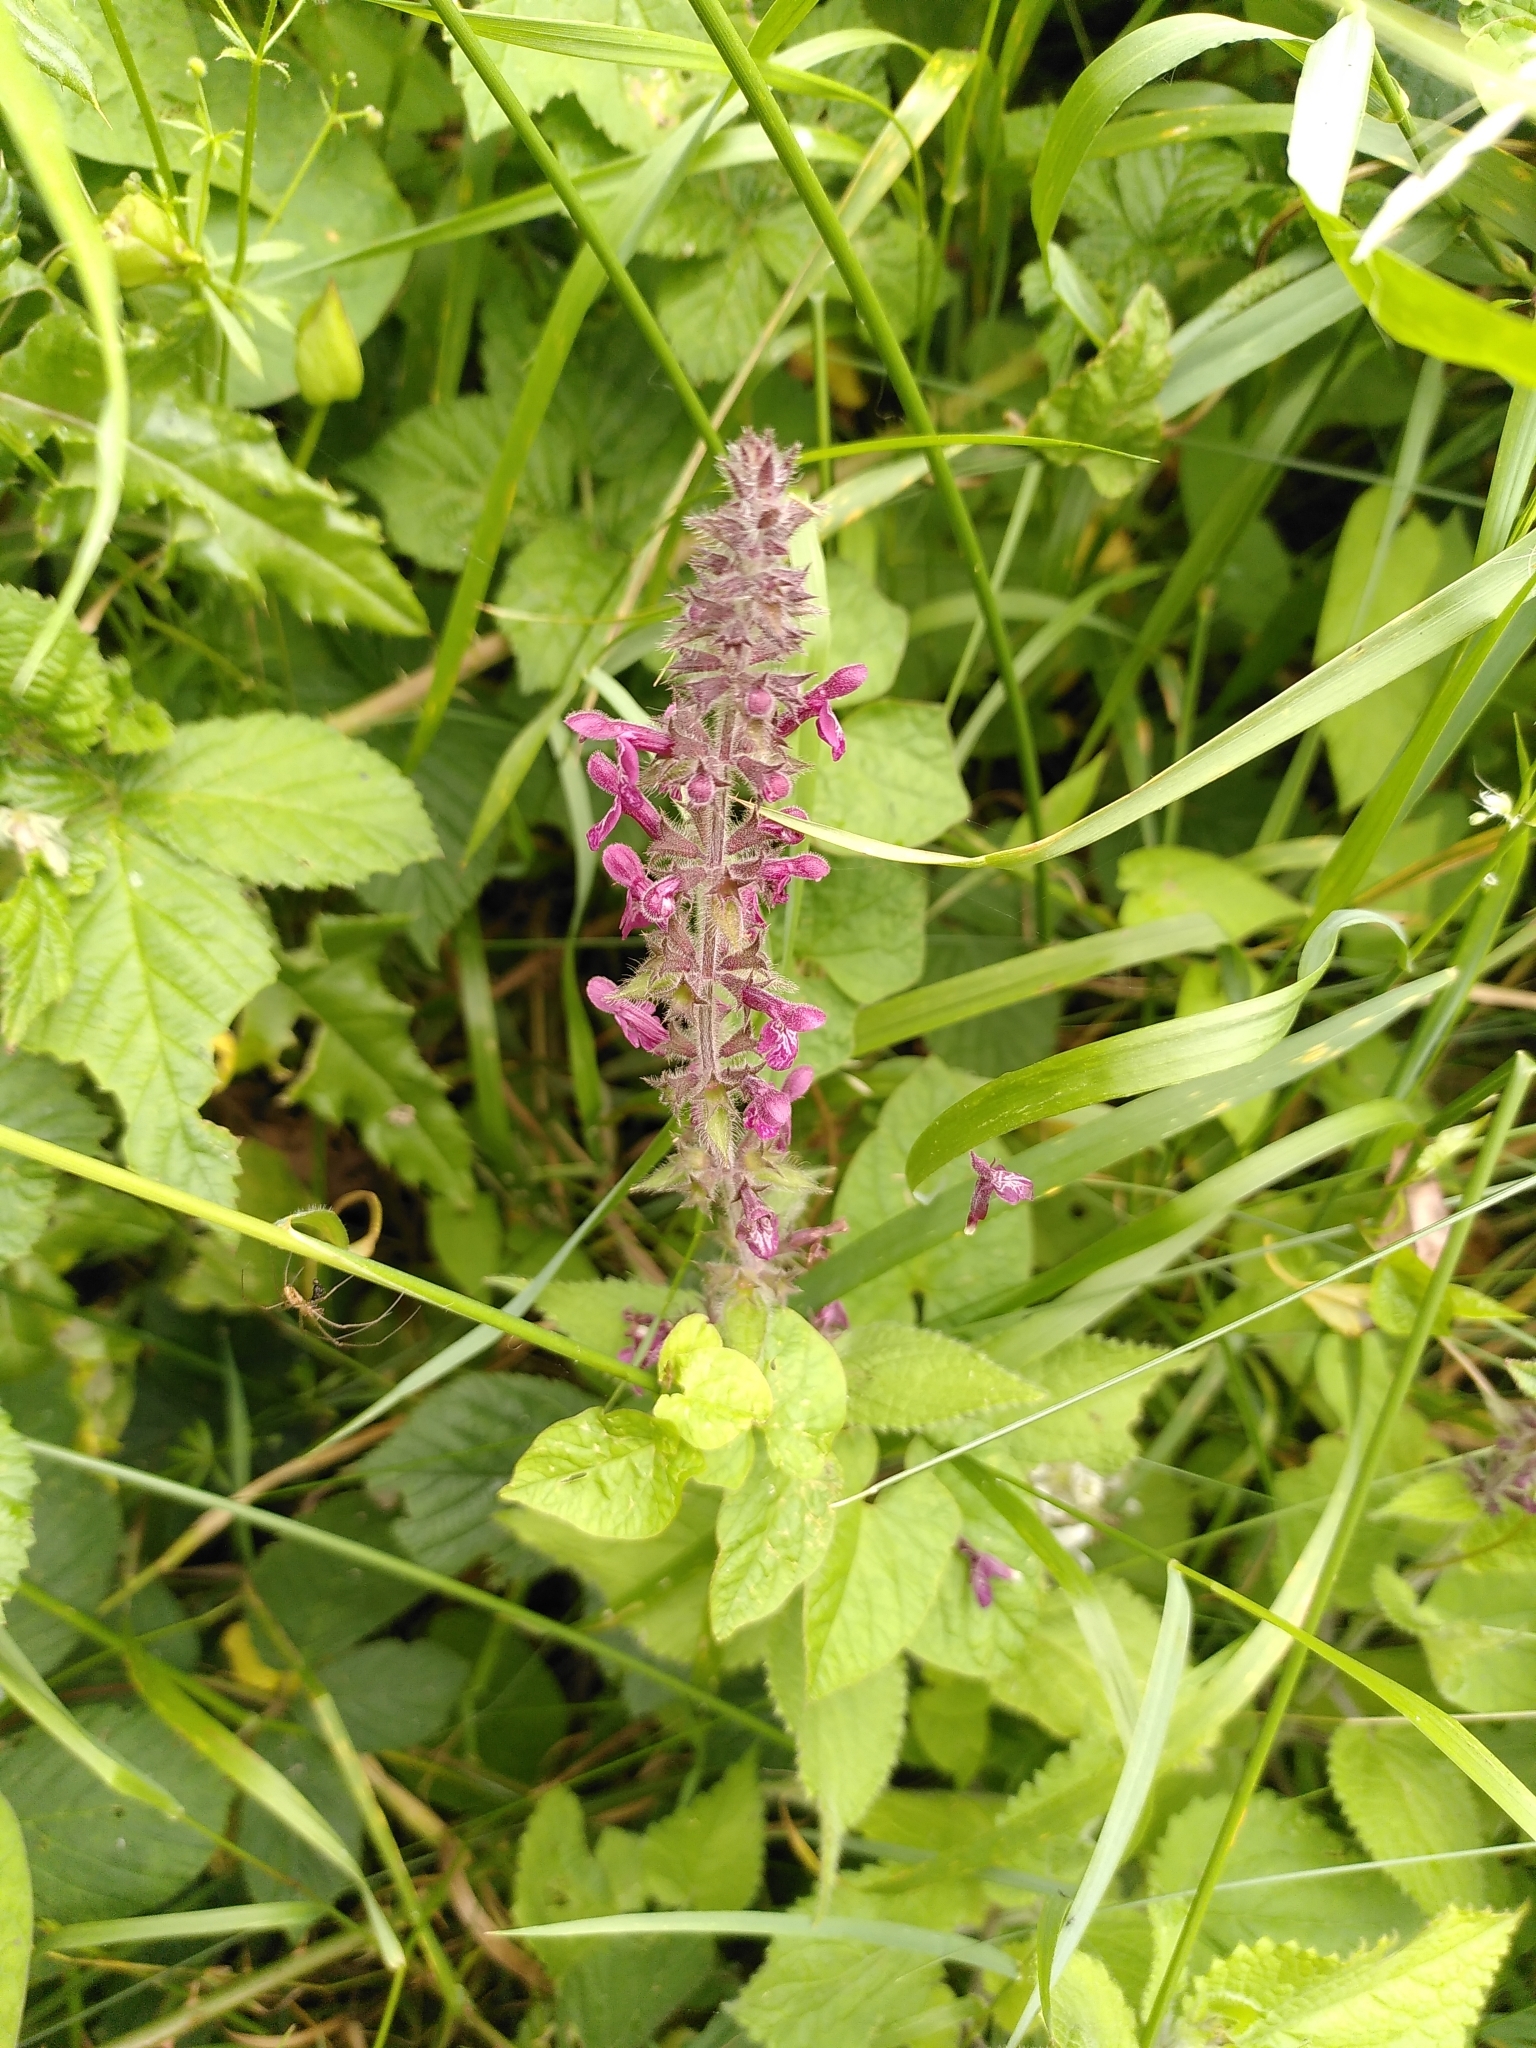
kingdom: Plantae
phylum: Tracheophyta
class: Magnoliopsida
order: Lamiales
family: Lamiaceae
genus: Stachys
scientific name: Stachys sylvatica
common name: Hedge woundwort
